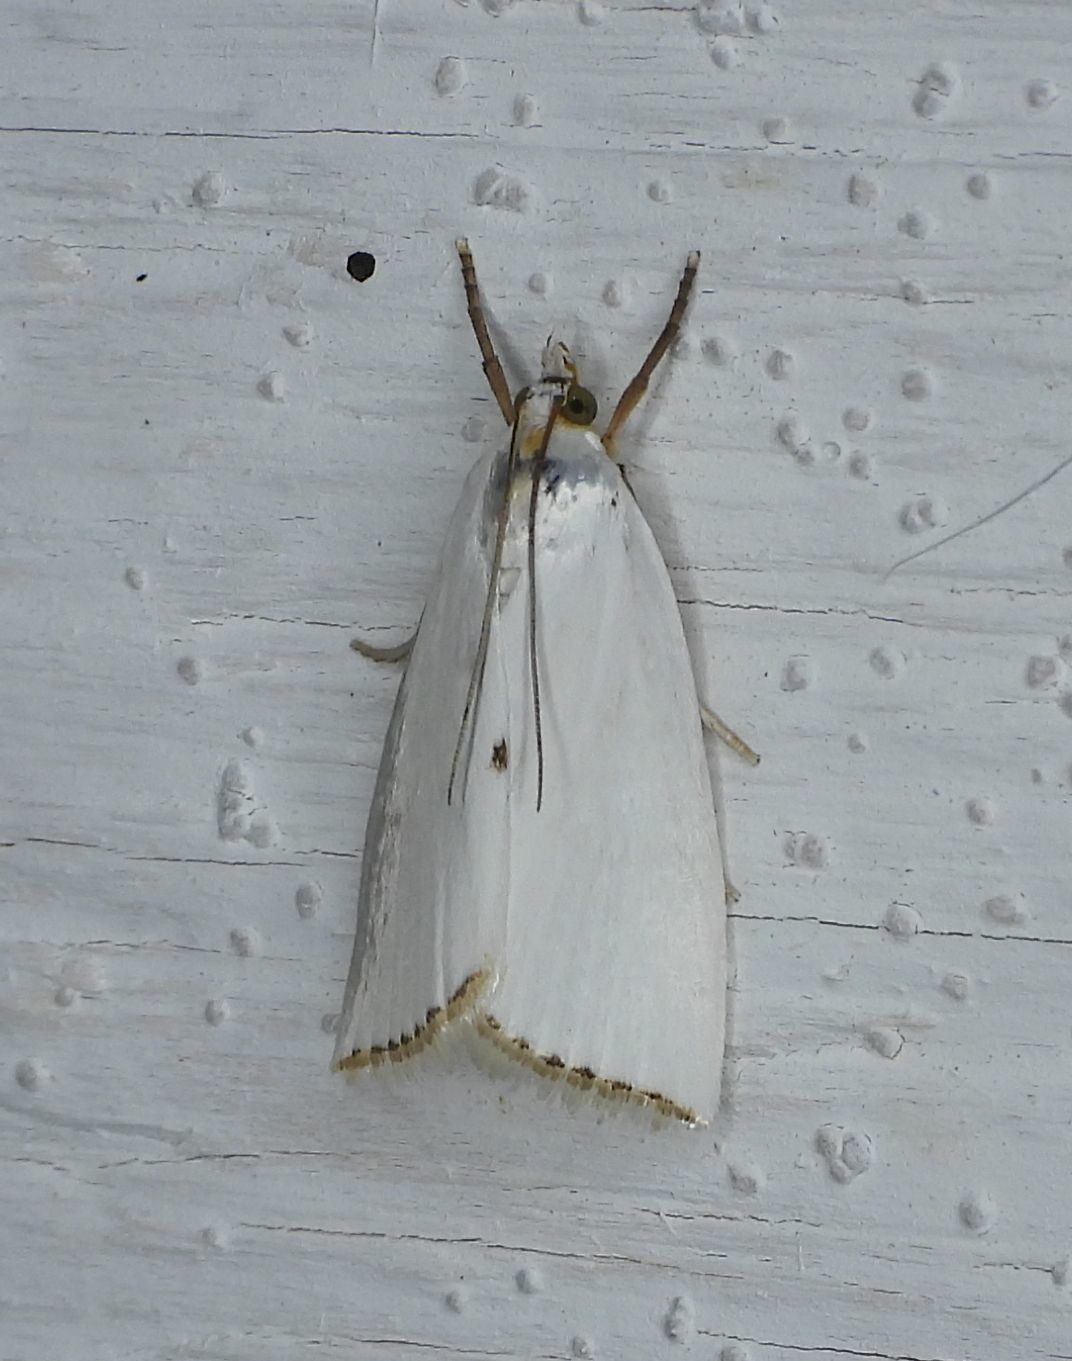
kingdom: Animalia
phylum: Arthropoda
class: Insecta
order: Lepidoptera
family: Crambidae
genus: Argyria
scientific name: Argyria nivalis
